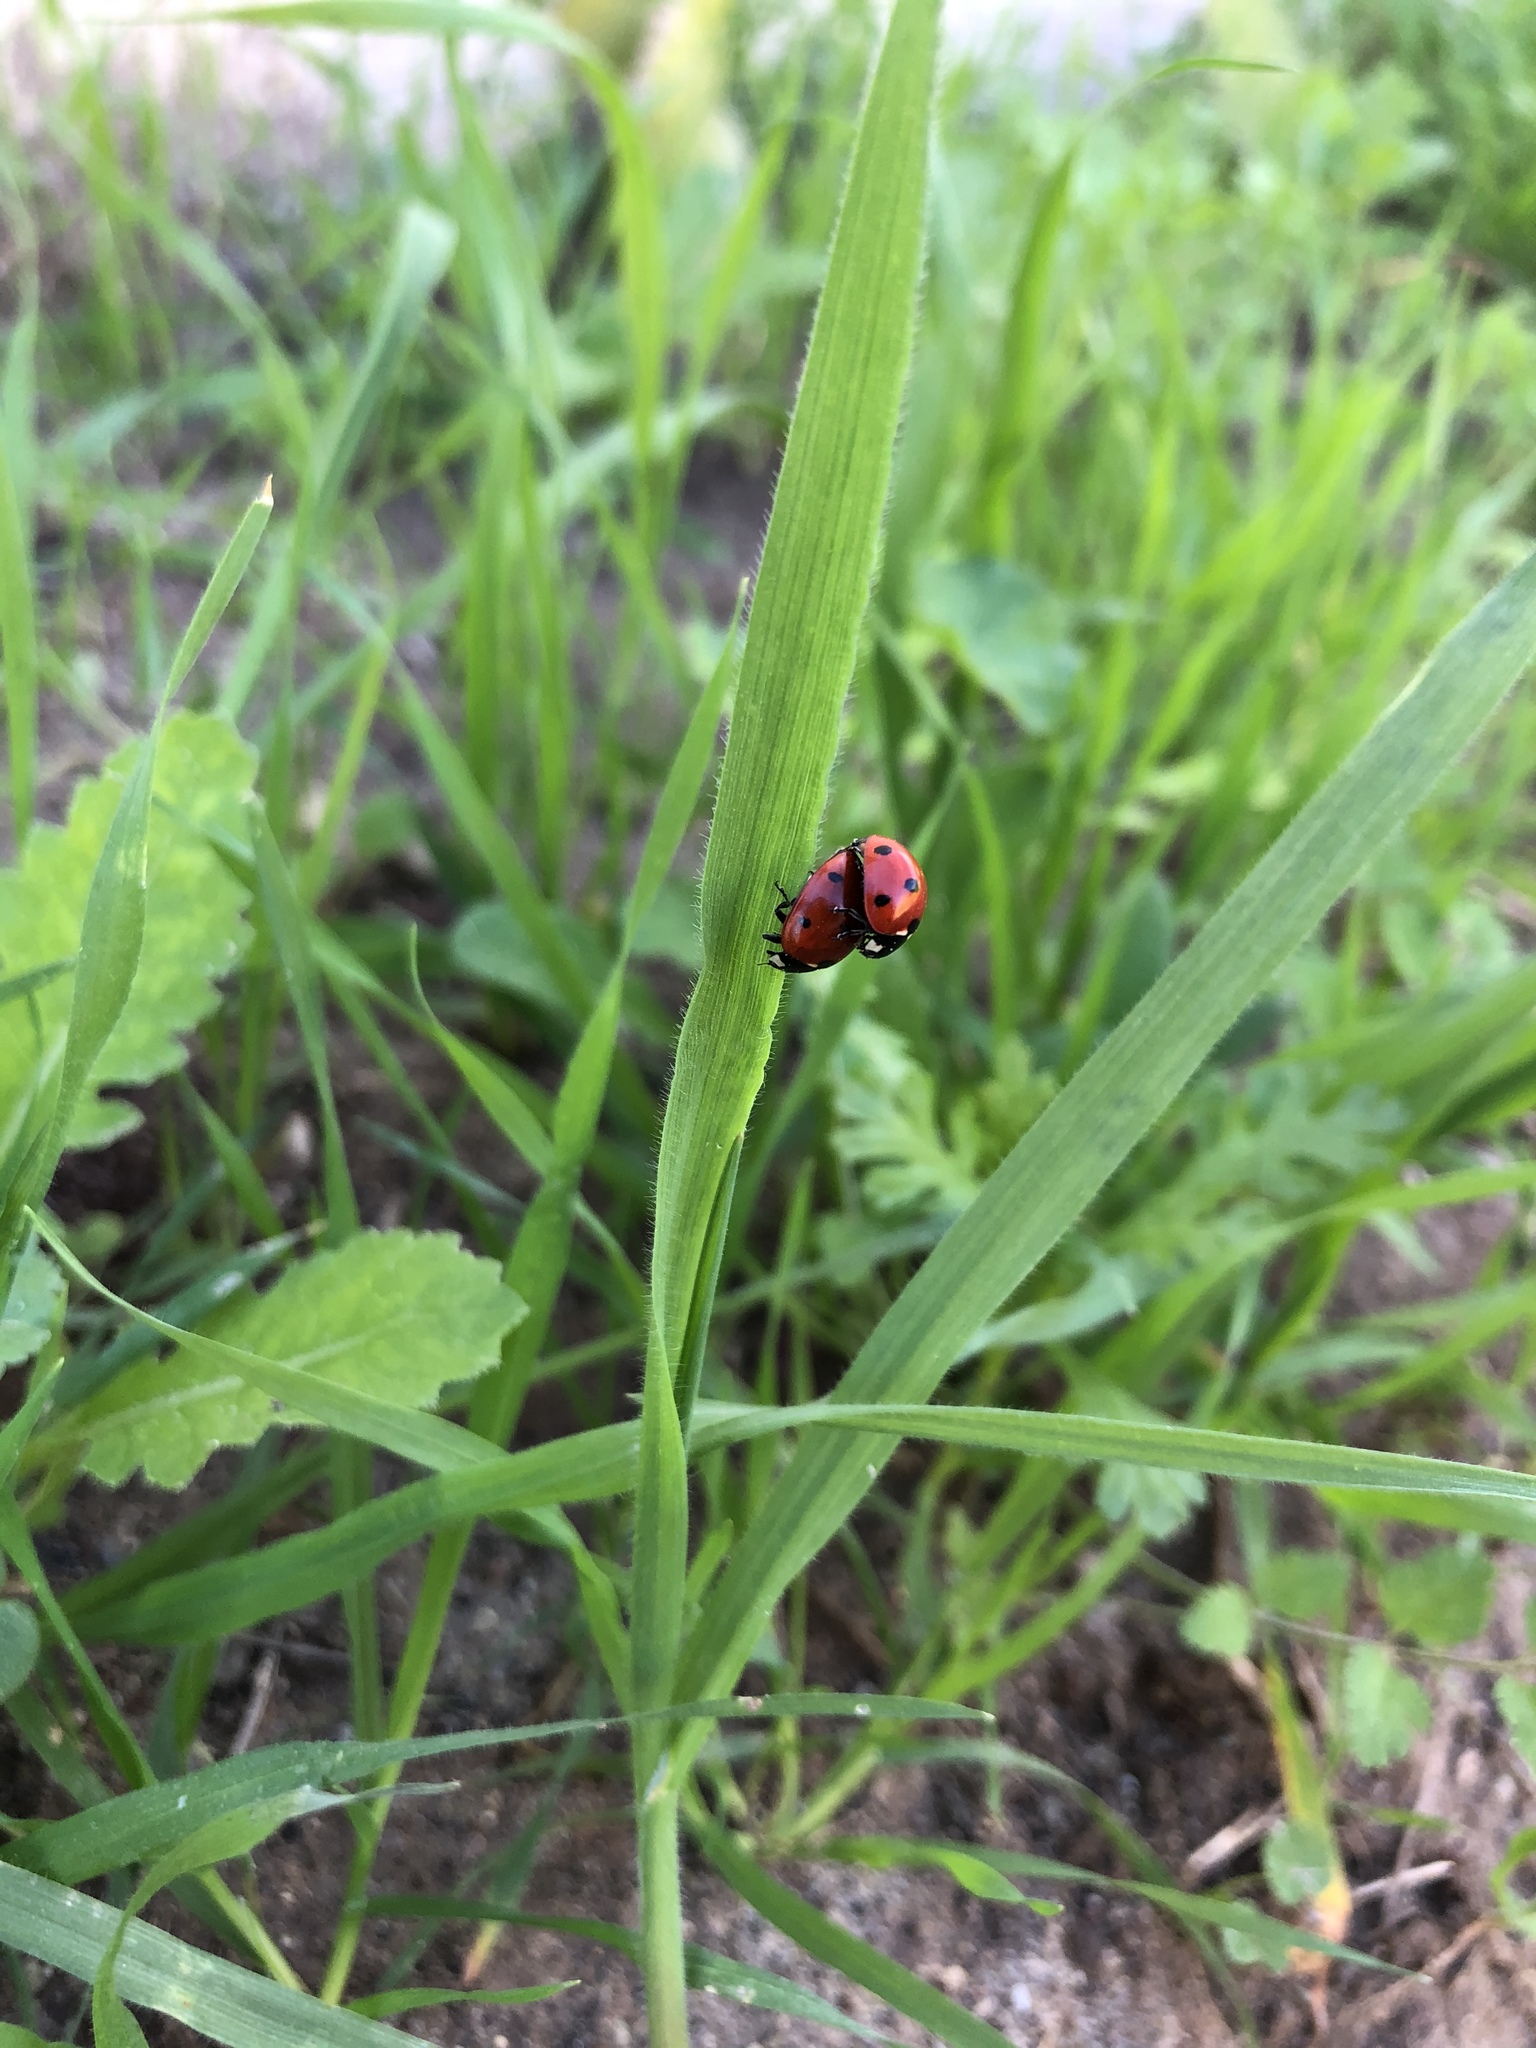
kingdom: Animalia
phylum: Arthropoda
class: Insecta
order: Coleoptera
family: Coccinellidae
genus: Coccinella
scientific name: Coccinella septempunctata
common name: Sevenspotted lady beetle
